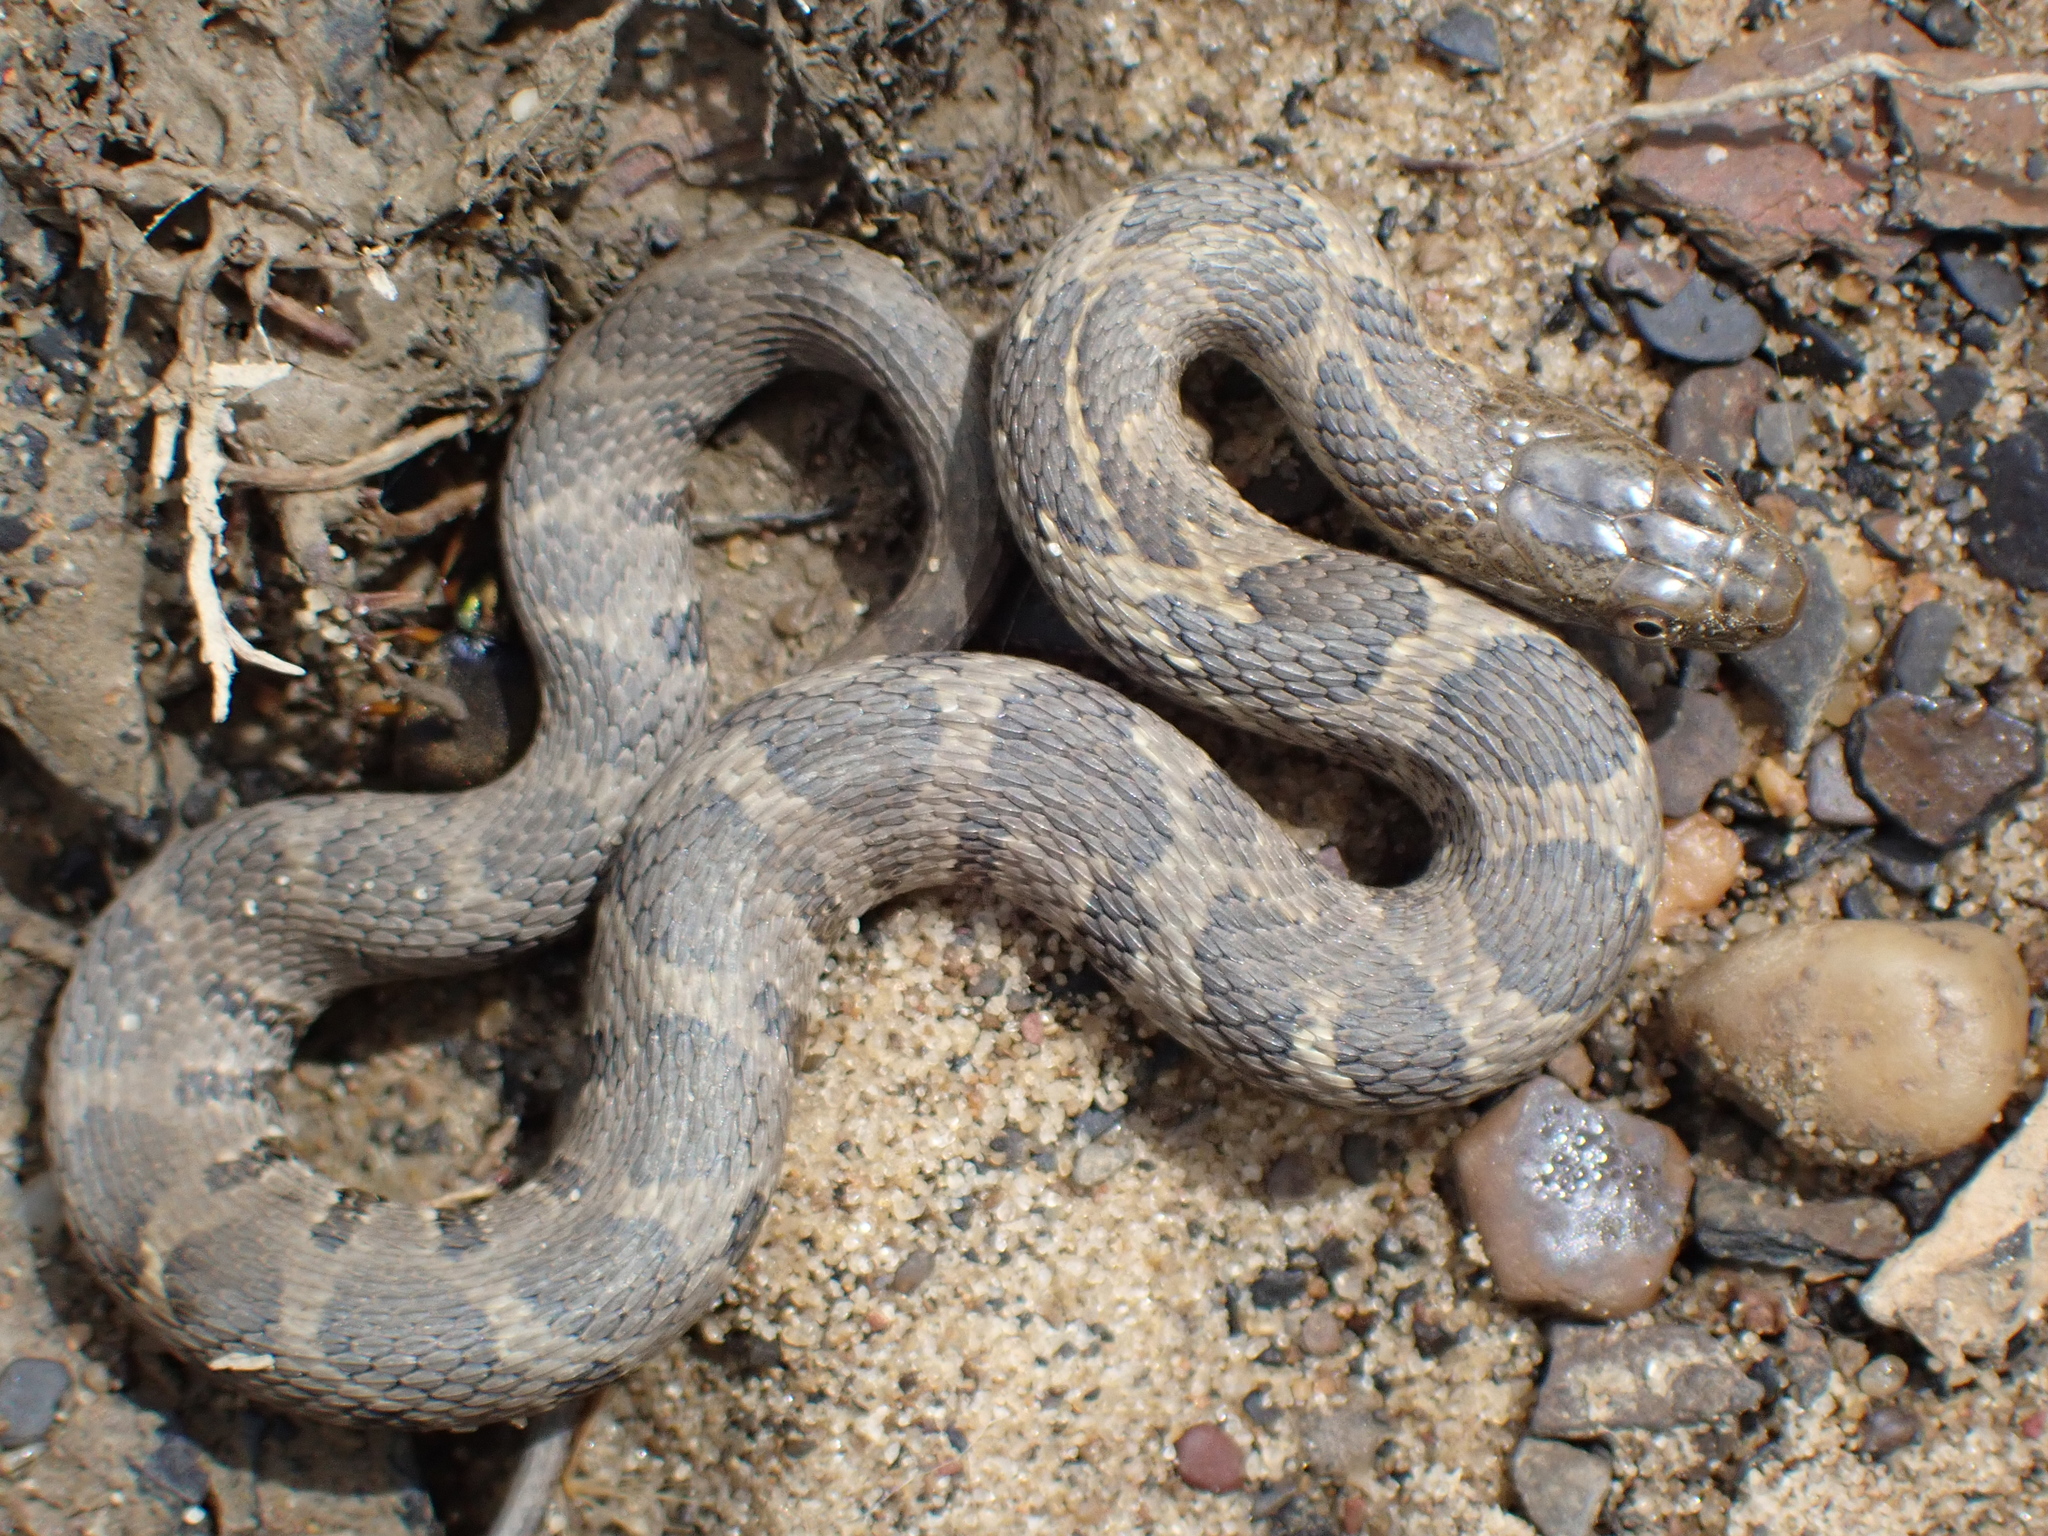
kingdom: Animalia
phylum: Chordata
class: Squamata
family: Colubridae
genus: Nerodia
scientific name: Nerodia sipedon
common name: Northern water snake
